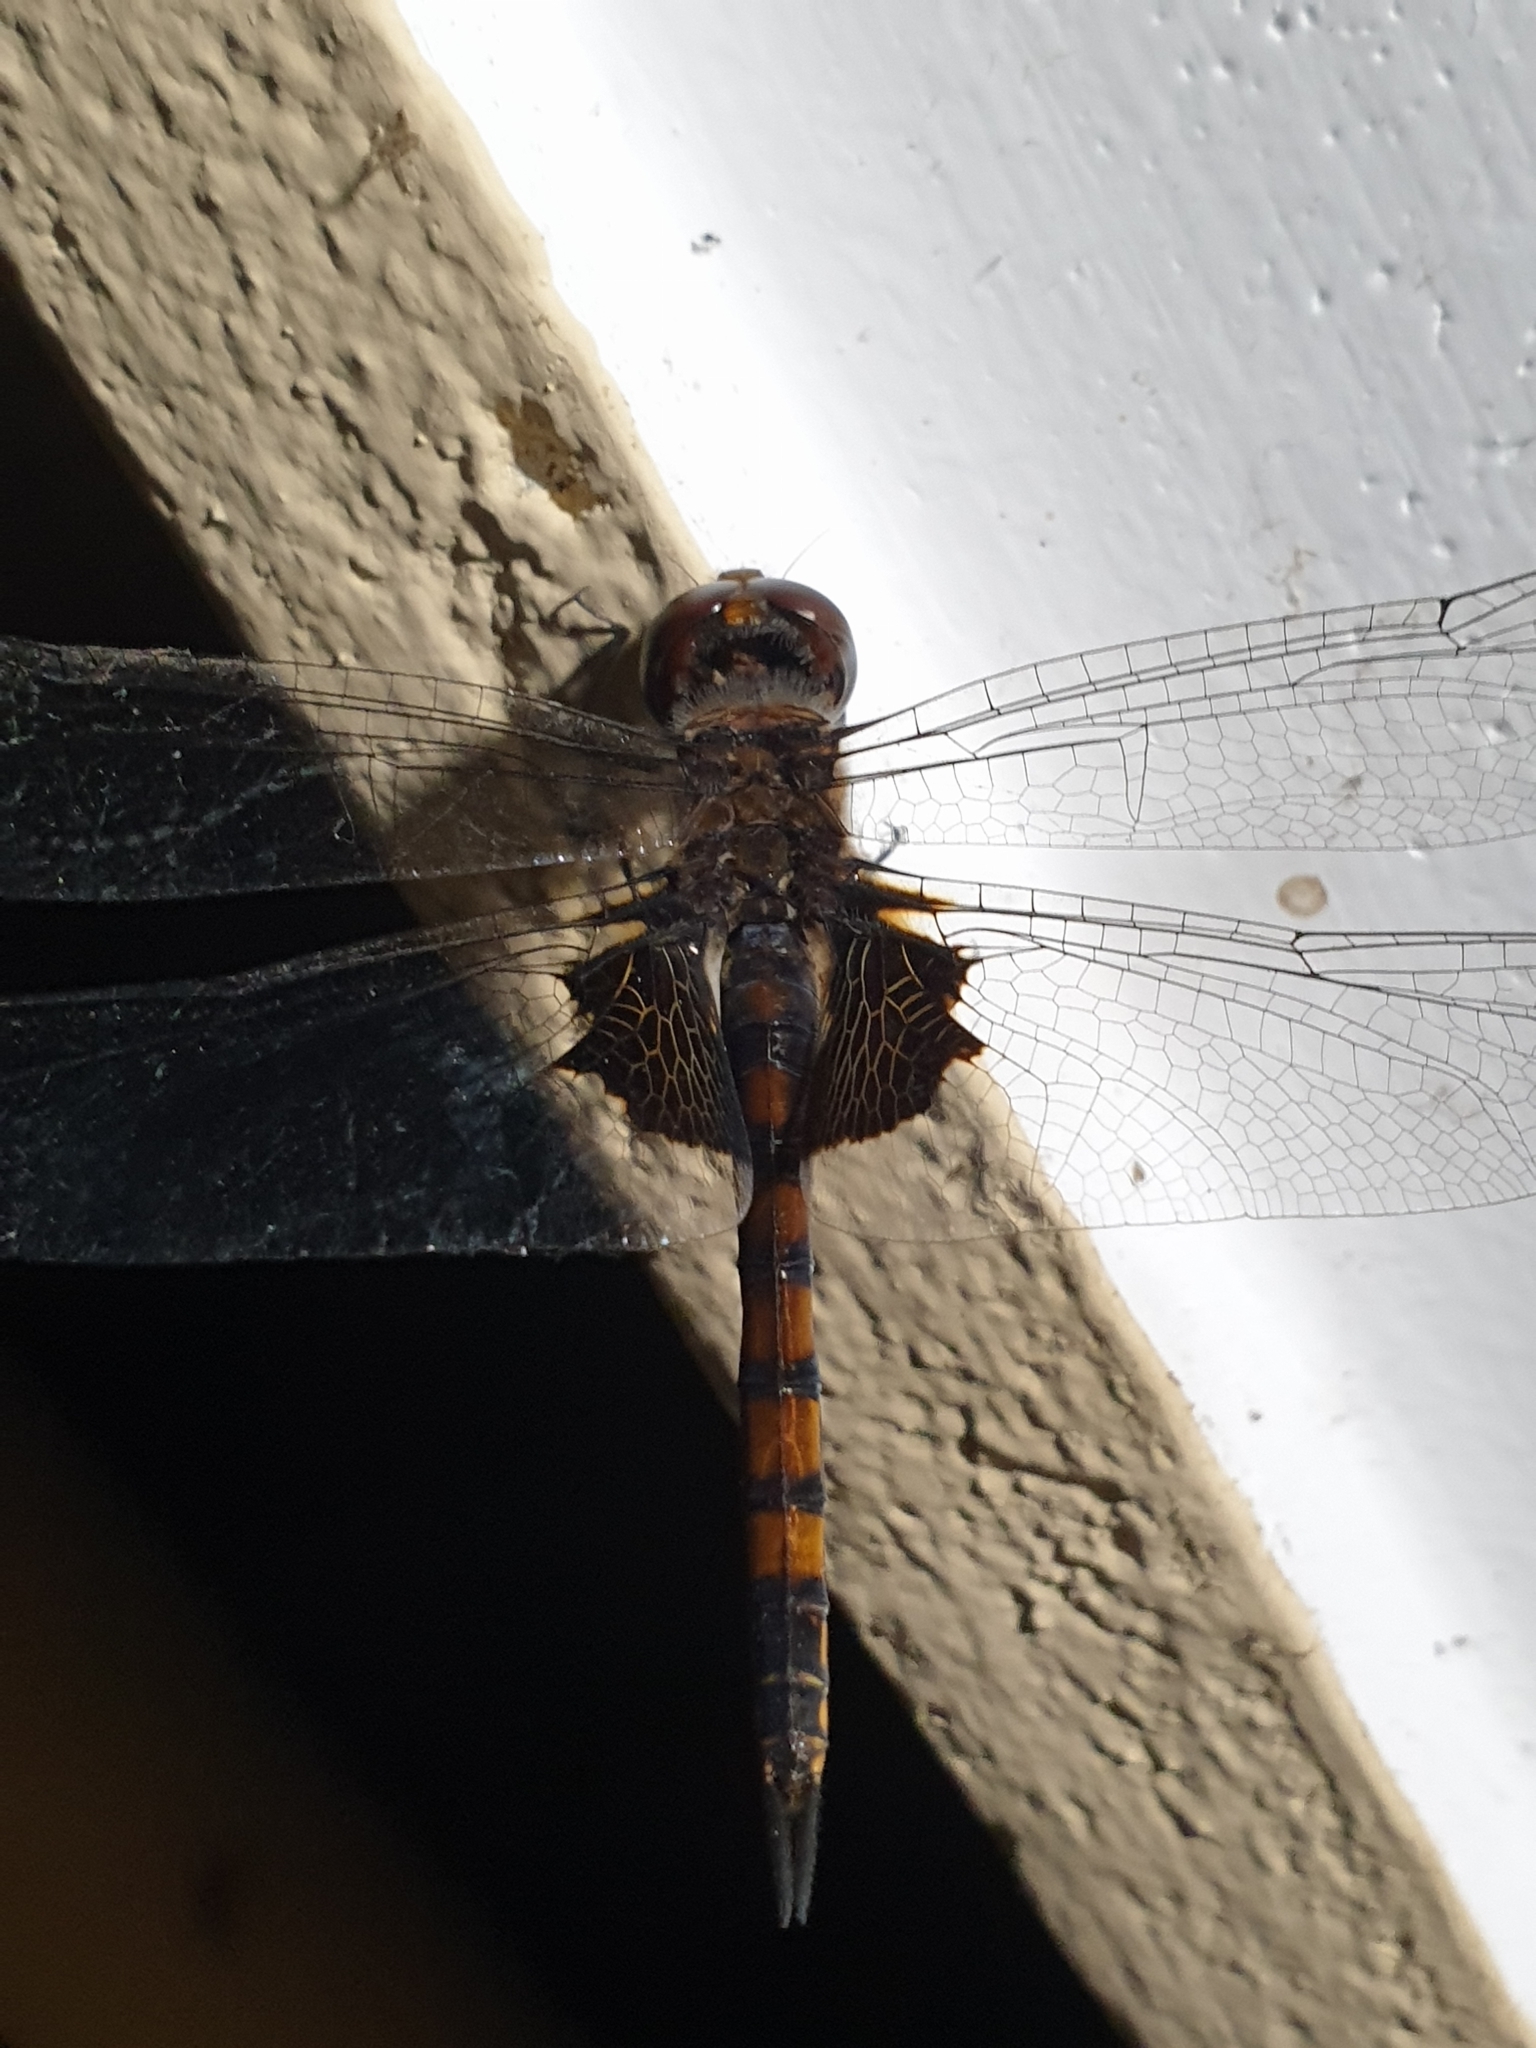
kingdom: Animalia
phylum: Arthropoda
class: Insecta
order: Odonata
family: Libellulidae
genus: Tramea
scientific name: Tramea limbata
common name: Ferruginous glider
